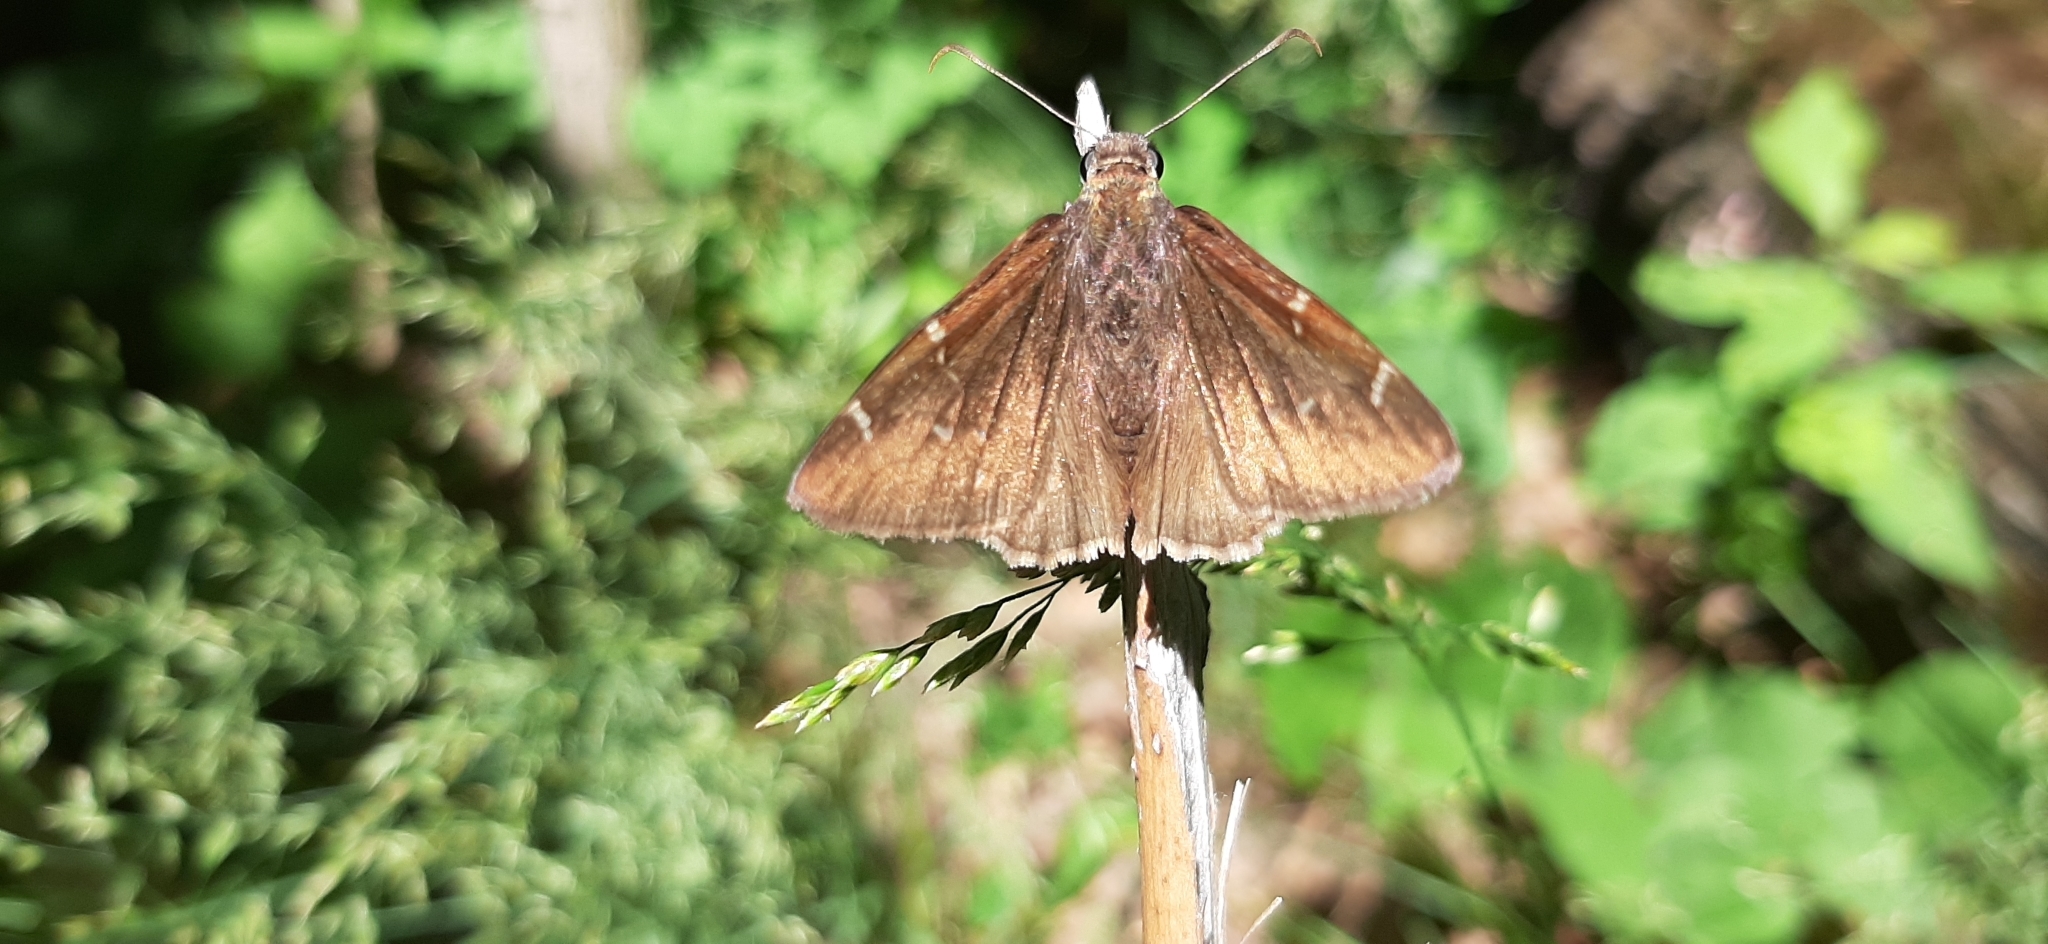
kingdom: Animalia
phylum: Arthropoda
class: Insecta
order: Lepidoptera
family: Hesperiidae
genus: Thorybes
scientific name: Thorybes pylades
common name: Northern cloudywing
